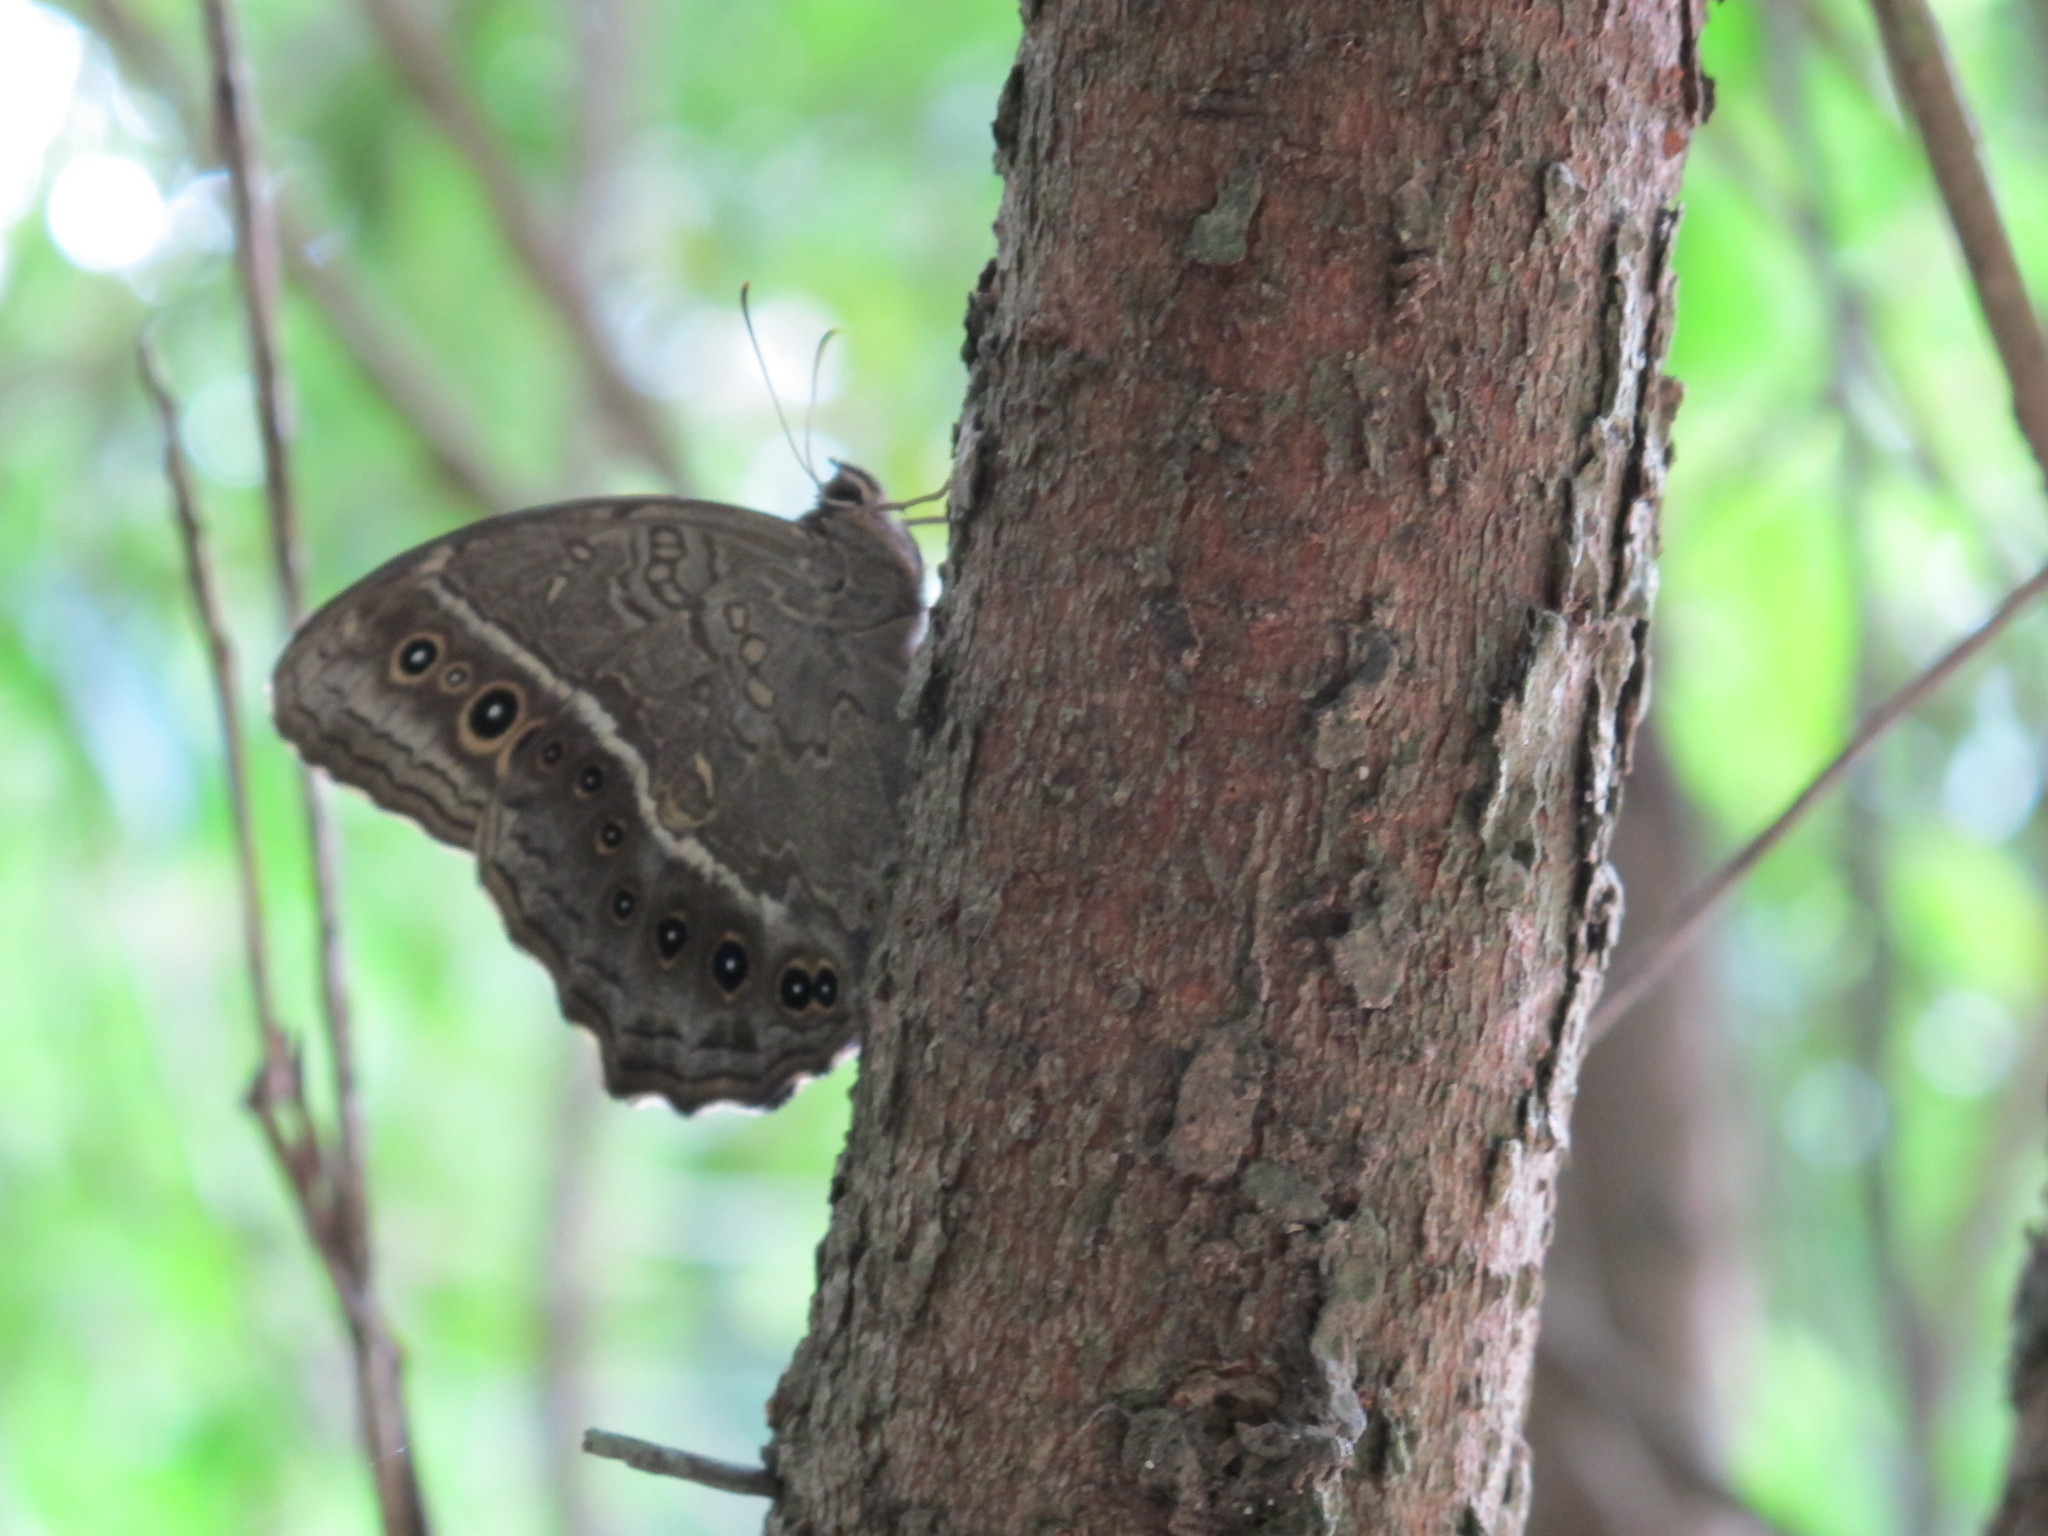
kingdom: Animalia
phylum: Arthropoda
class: Insecta
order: Lepidoptera
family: Nymphalidae
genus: Neope
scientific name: Neope muirheadii
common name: Black-spotted labyrinth
